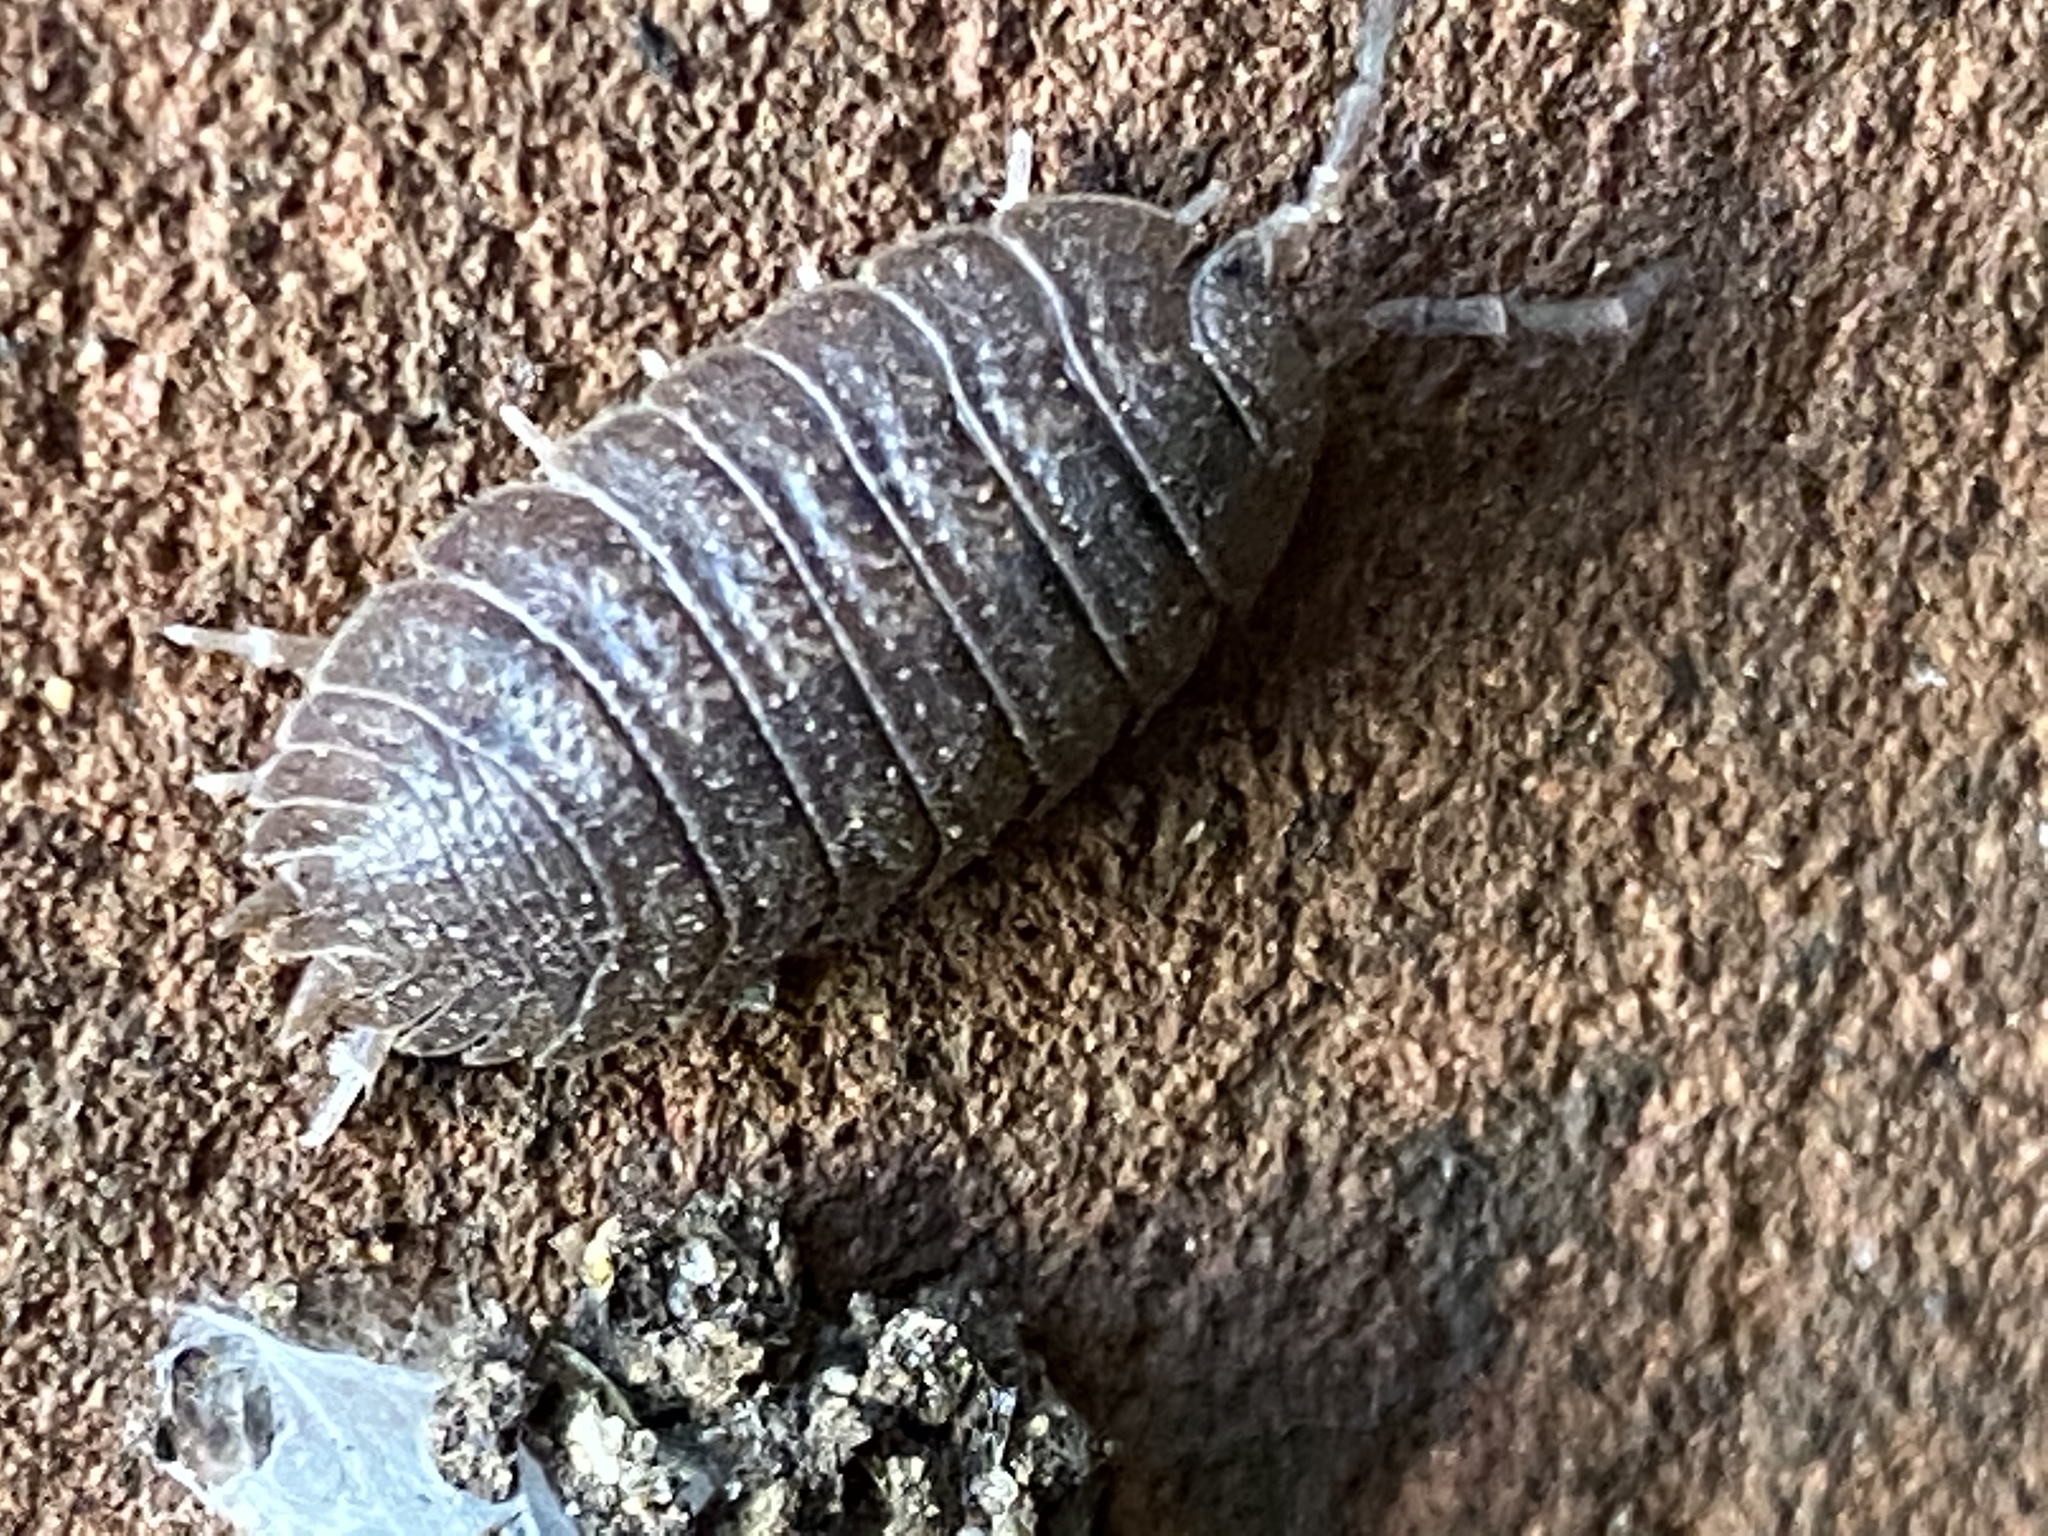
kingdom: Animalia
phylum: Arthropoda
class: Malacostraca
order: Isopoda
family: Porcellionidae
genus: Porcellio
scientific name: Porcellio dilatatus
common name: Isopod
